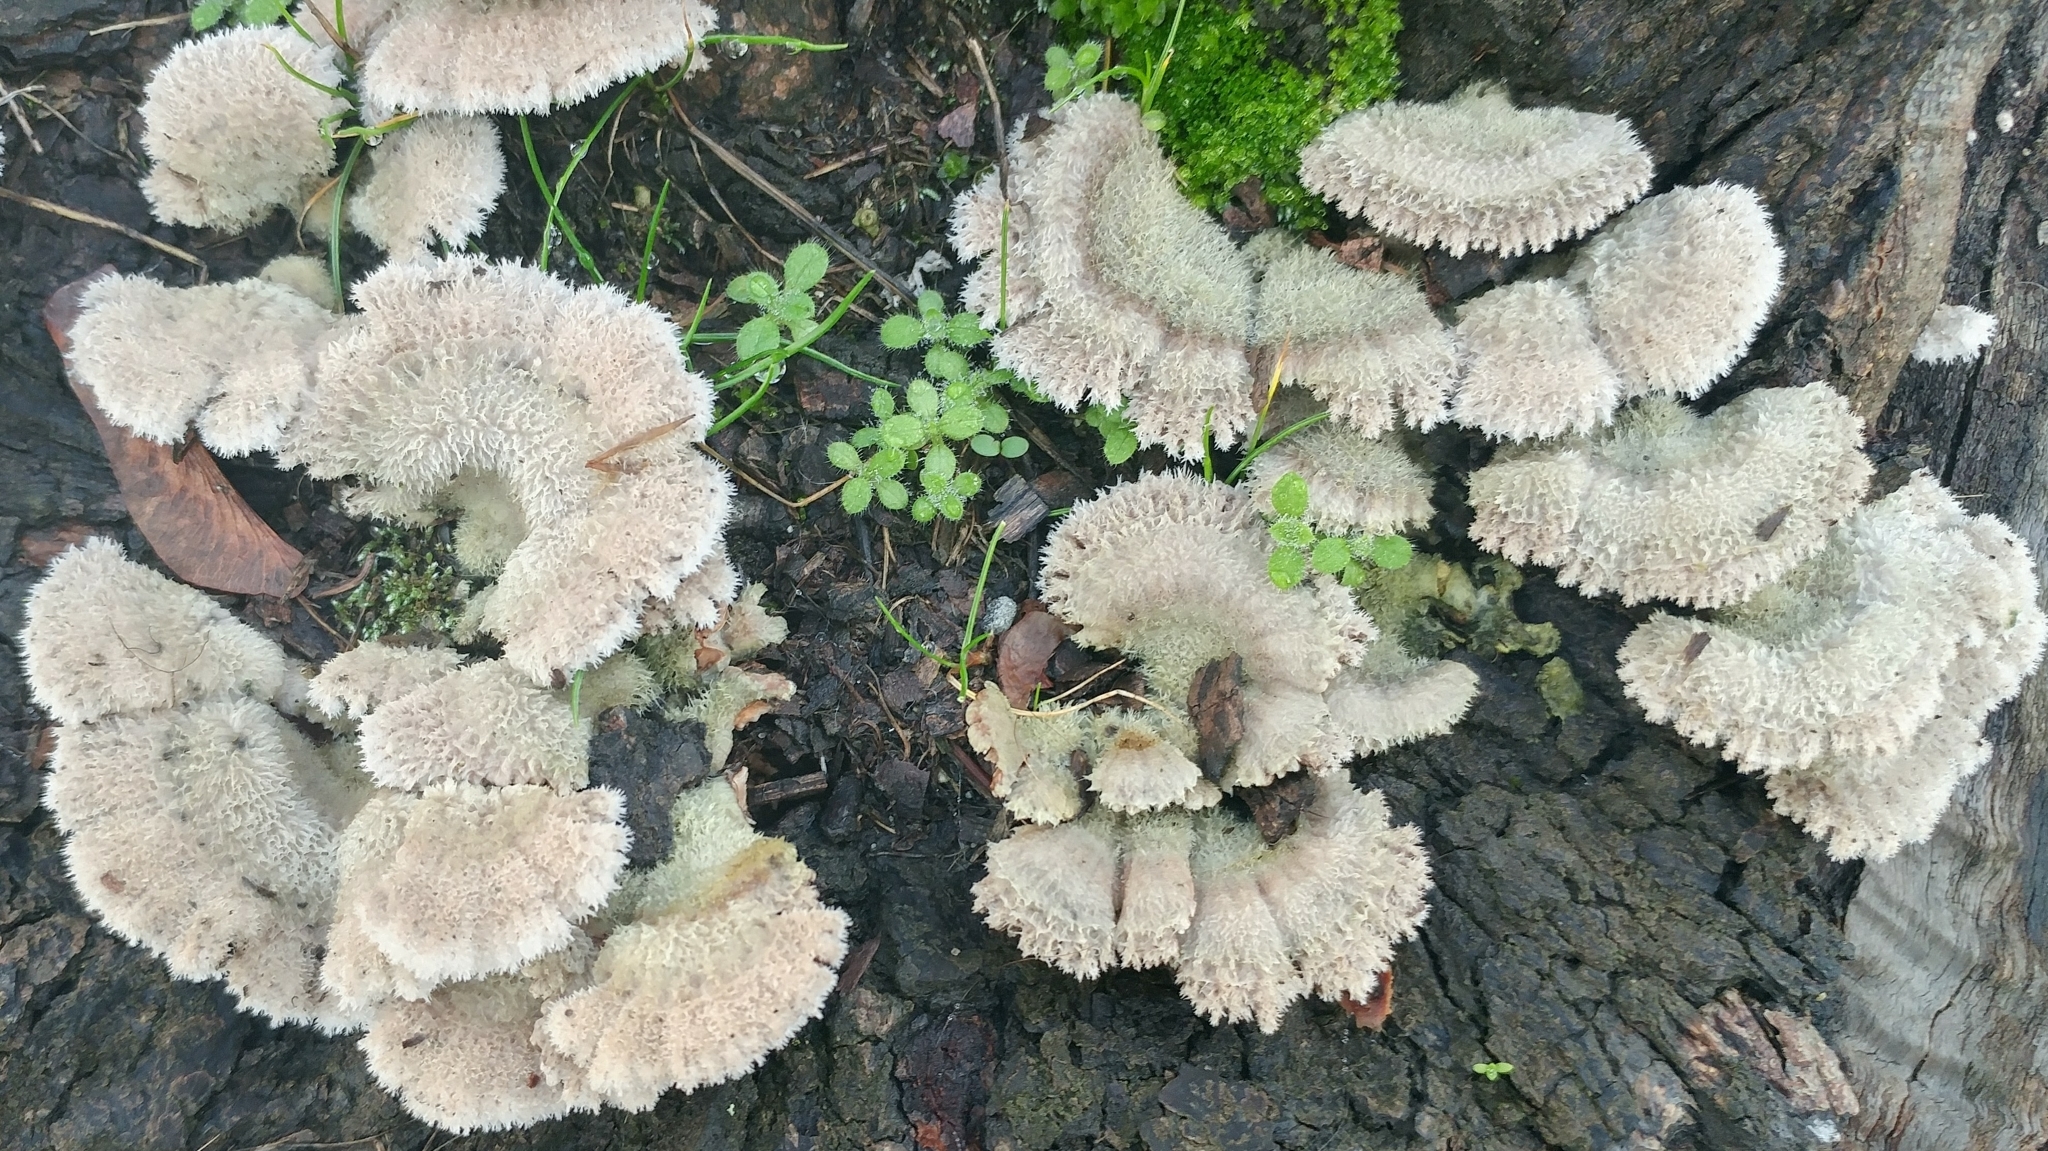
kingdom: Fungi
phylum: Basidiomycota
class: Agaricomycetes
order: Agaricales
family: Schizophyllaceae
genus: Schizophyllum
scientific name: Schizophyllum commune
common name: Common porecrust
